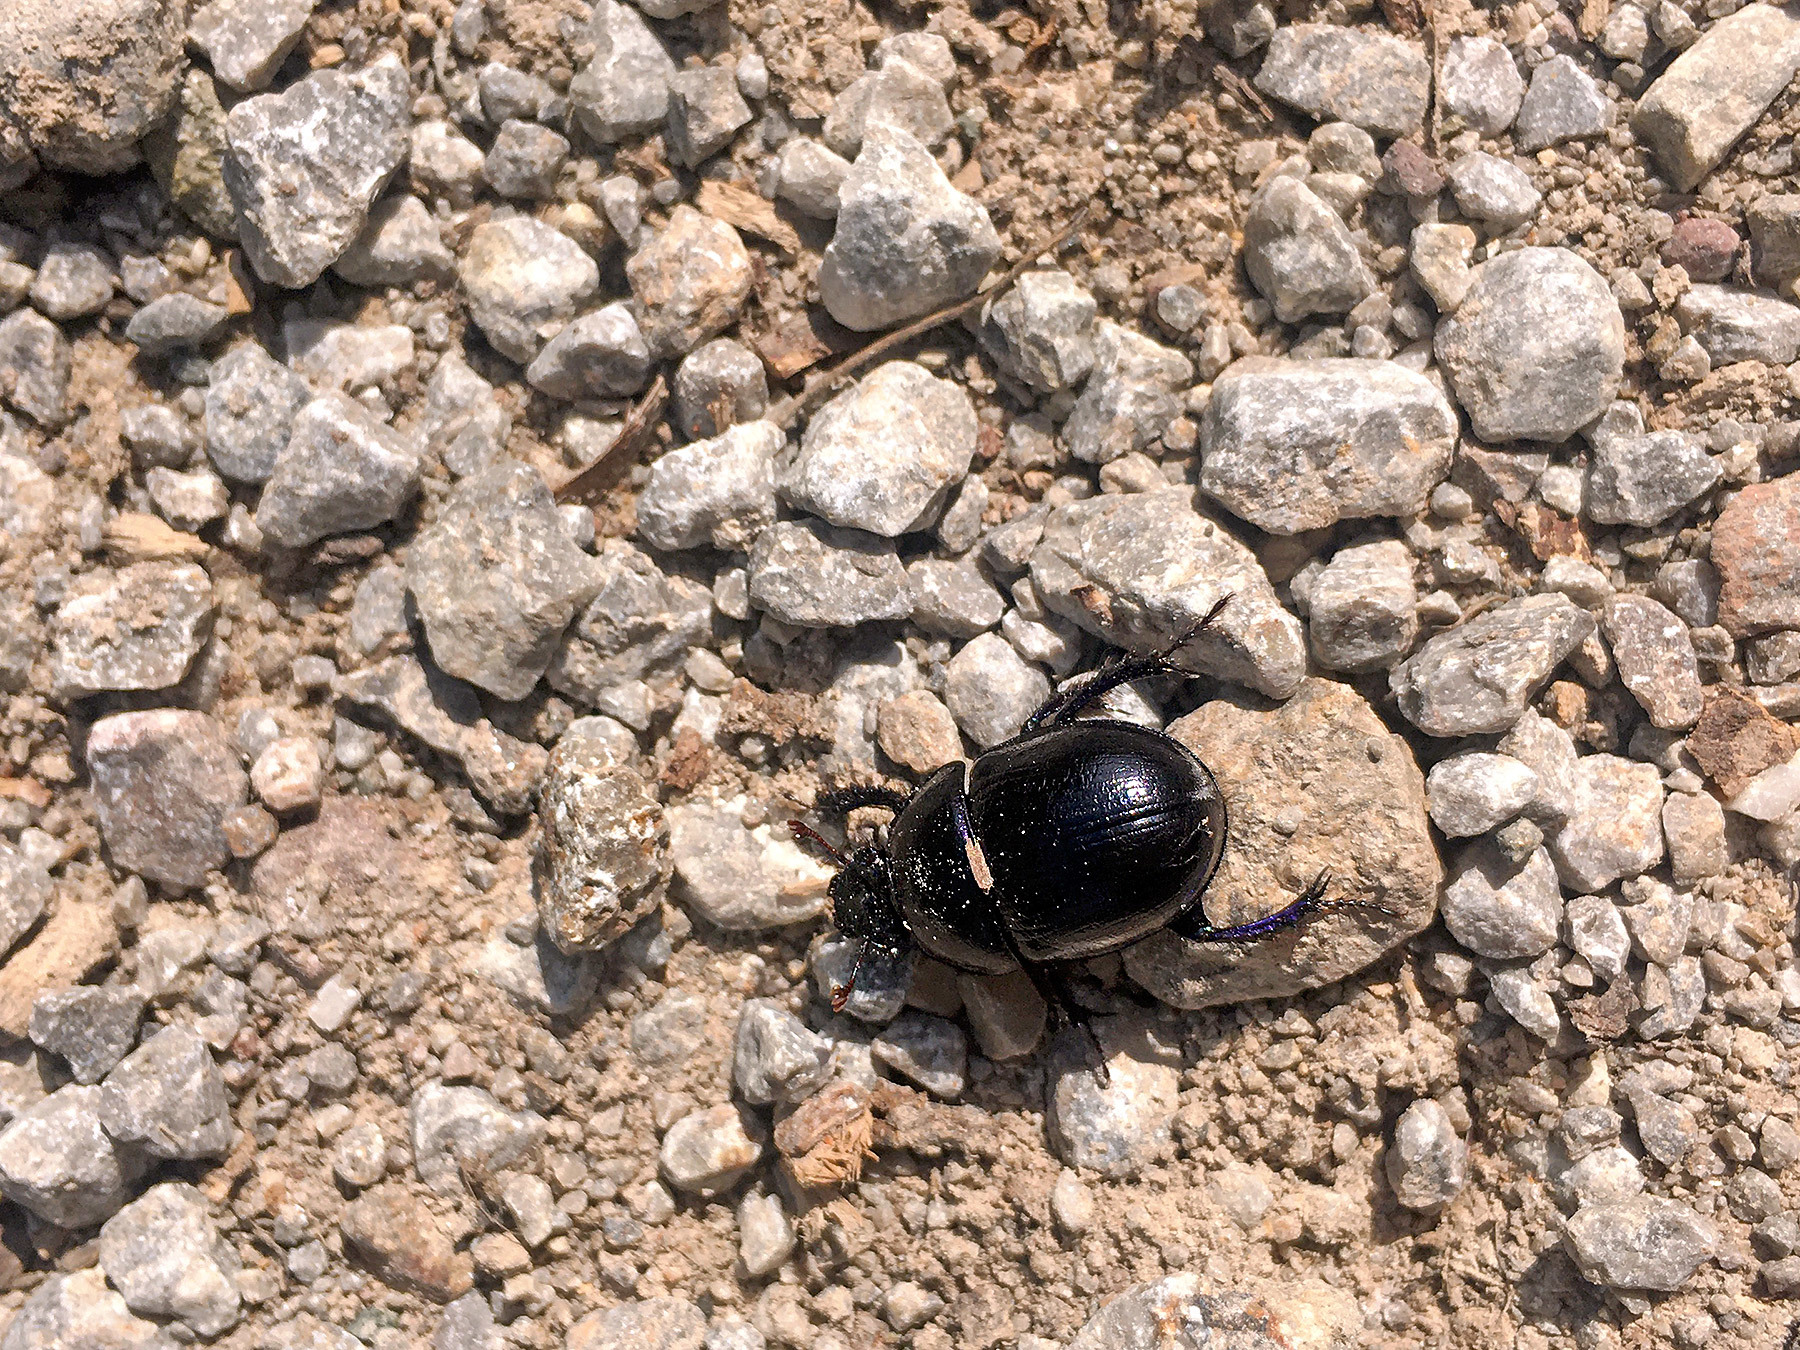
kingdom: Animalia
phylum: Arthropoda
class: Insecta
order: Coleoptera
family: Geotrupidae
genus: Anoplotrupes
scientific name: Anoplotrupes stercorosus
